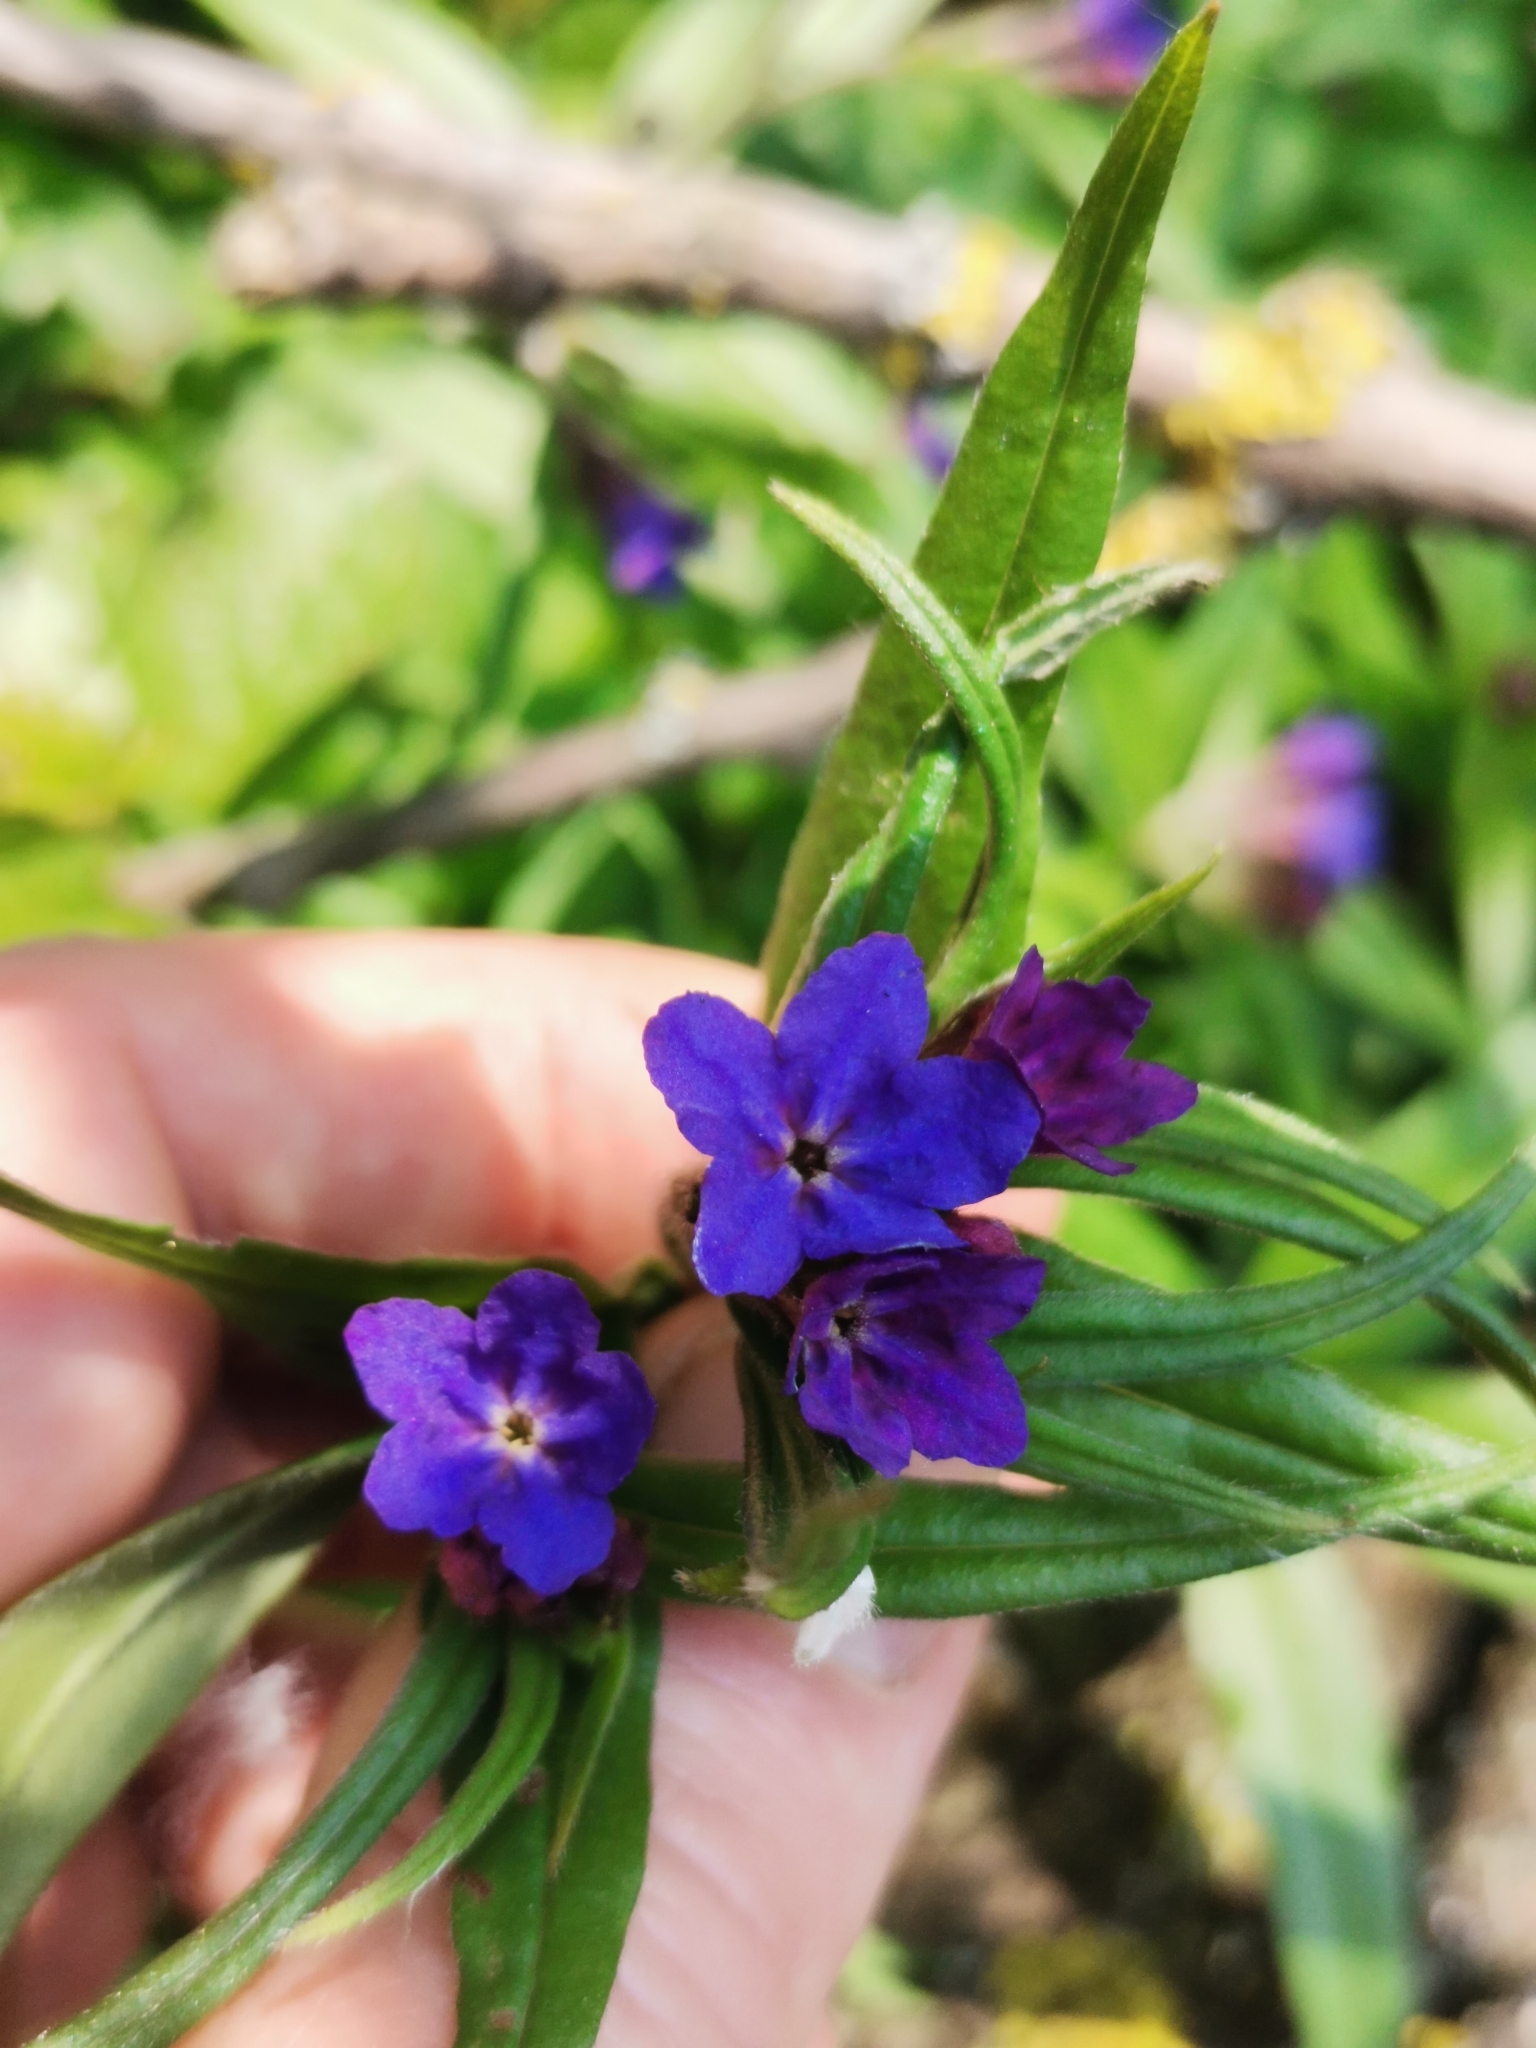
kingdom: Plantae
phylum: Tracheophyta
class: Magnoliopsida
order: Boraginales
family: Boraginaceae
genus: Aegonychon
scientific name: Aegonychon purpurocaeruleum
